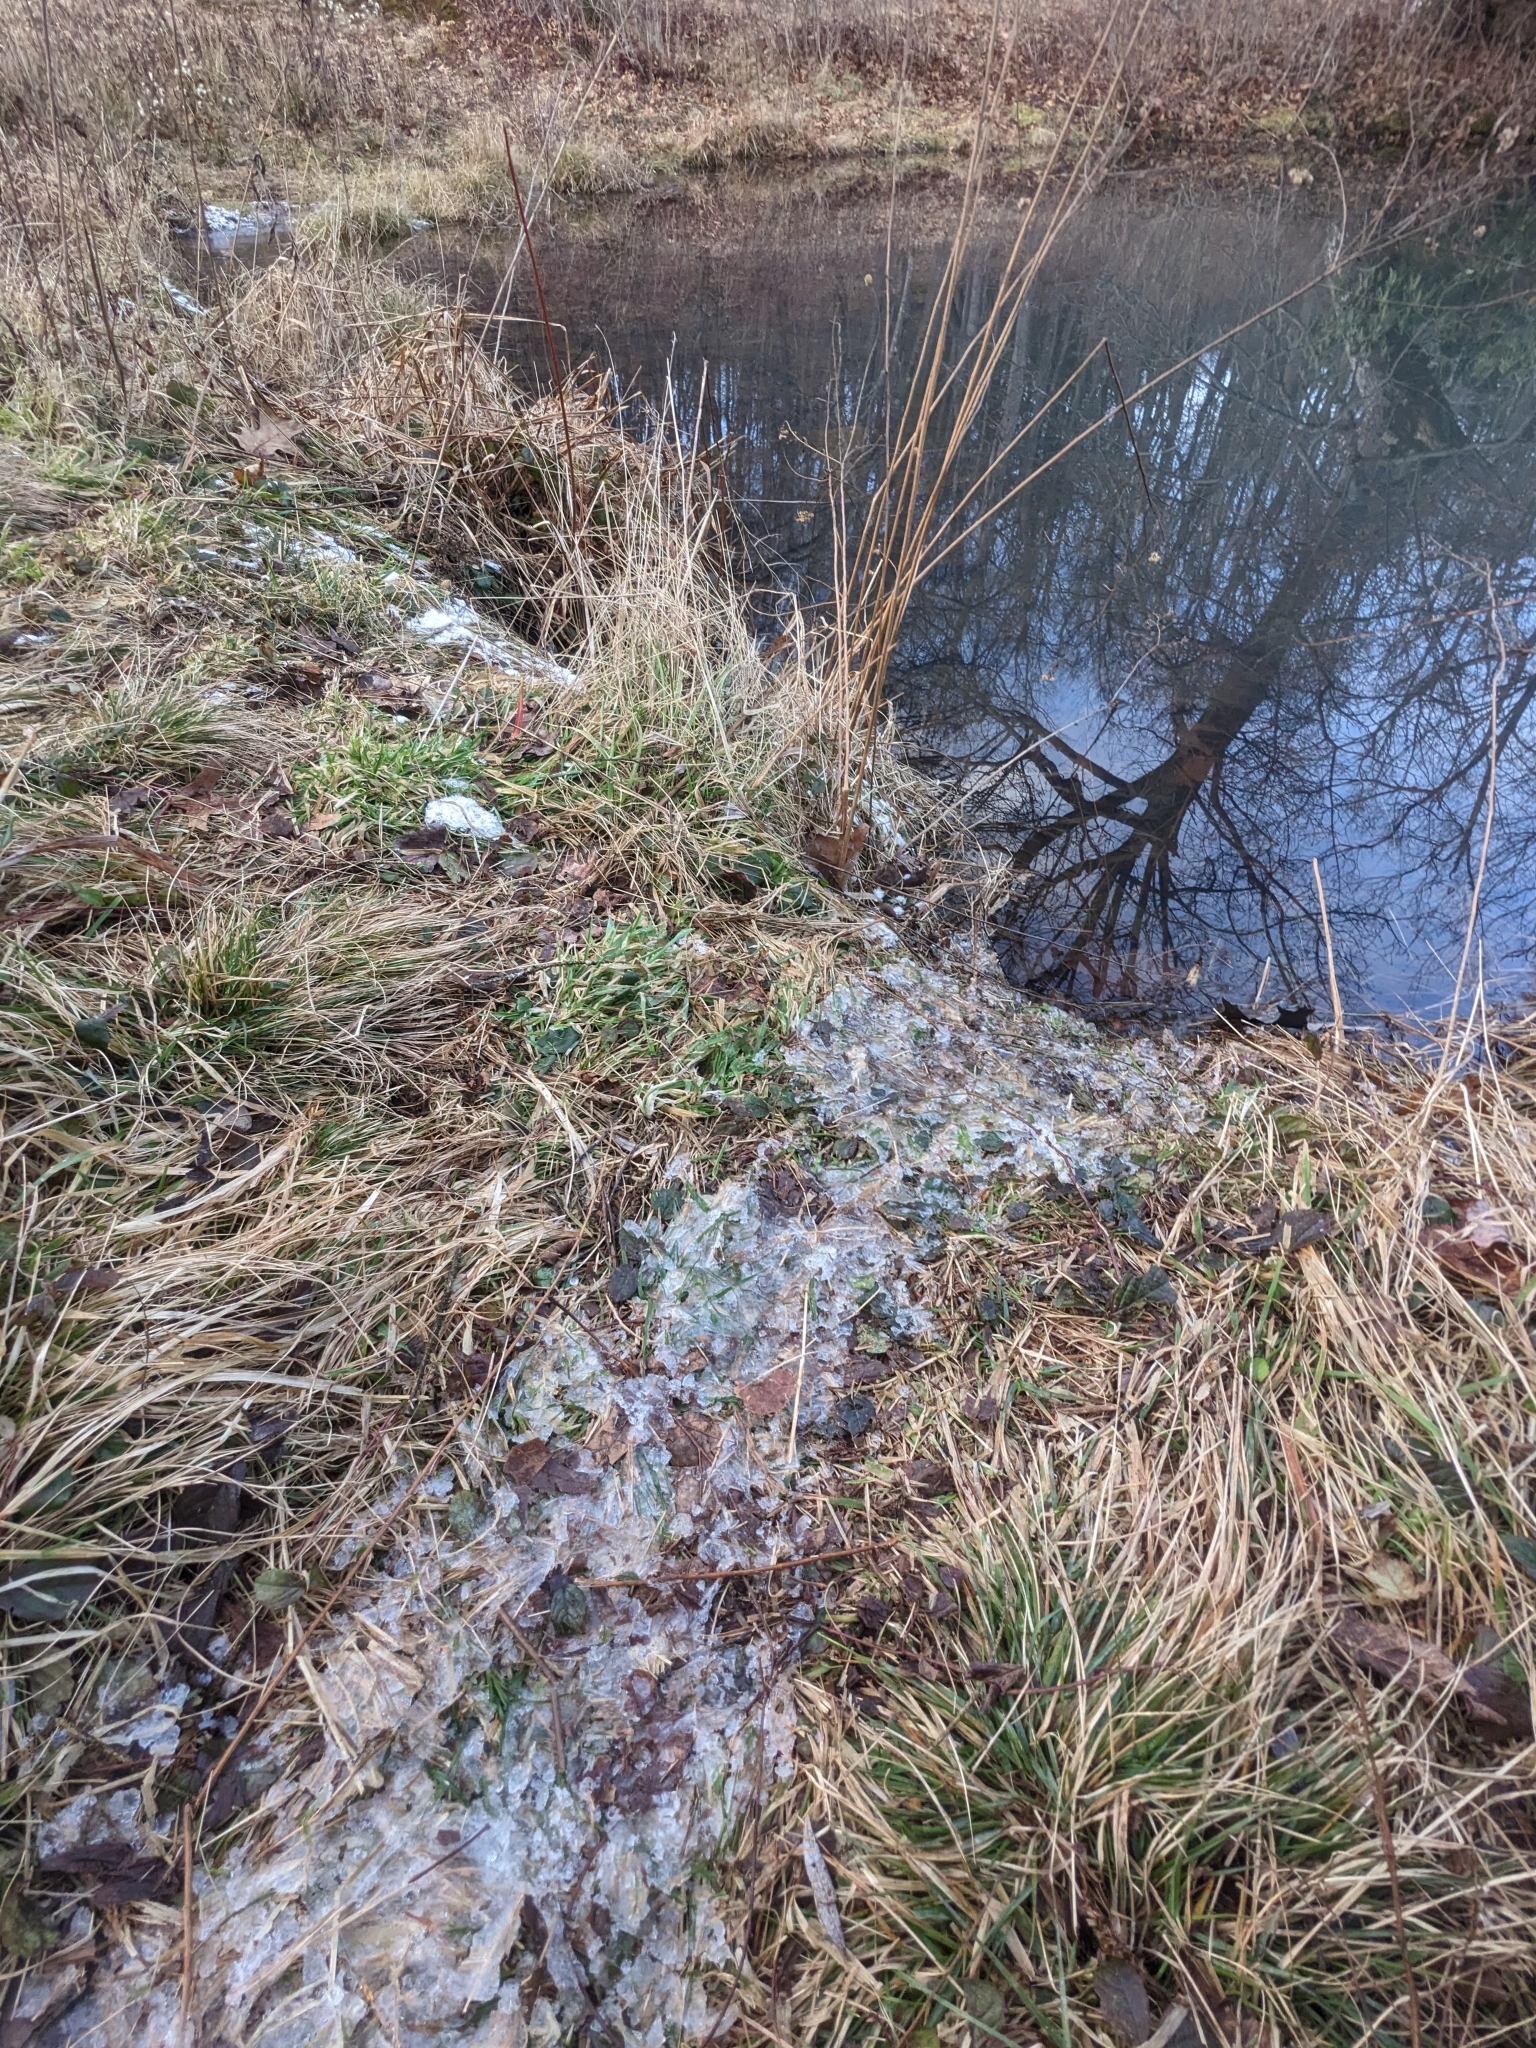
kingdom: Animalia
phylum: Chordata
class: Mammalia
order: Rodentia
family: Castoridae
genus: Castor
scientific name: Castor canadensis
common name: American beaver
